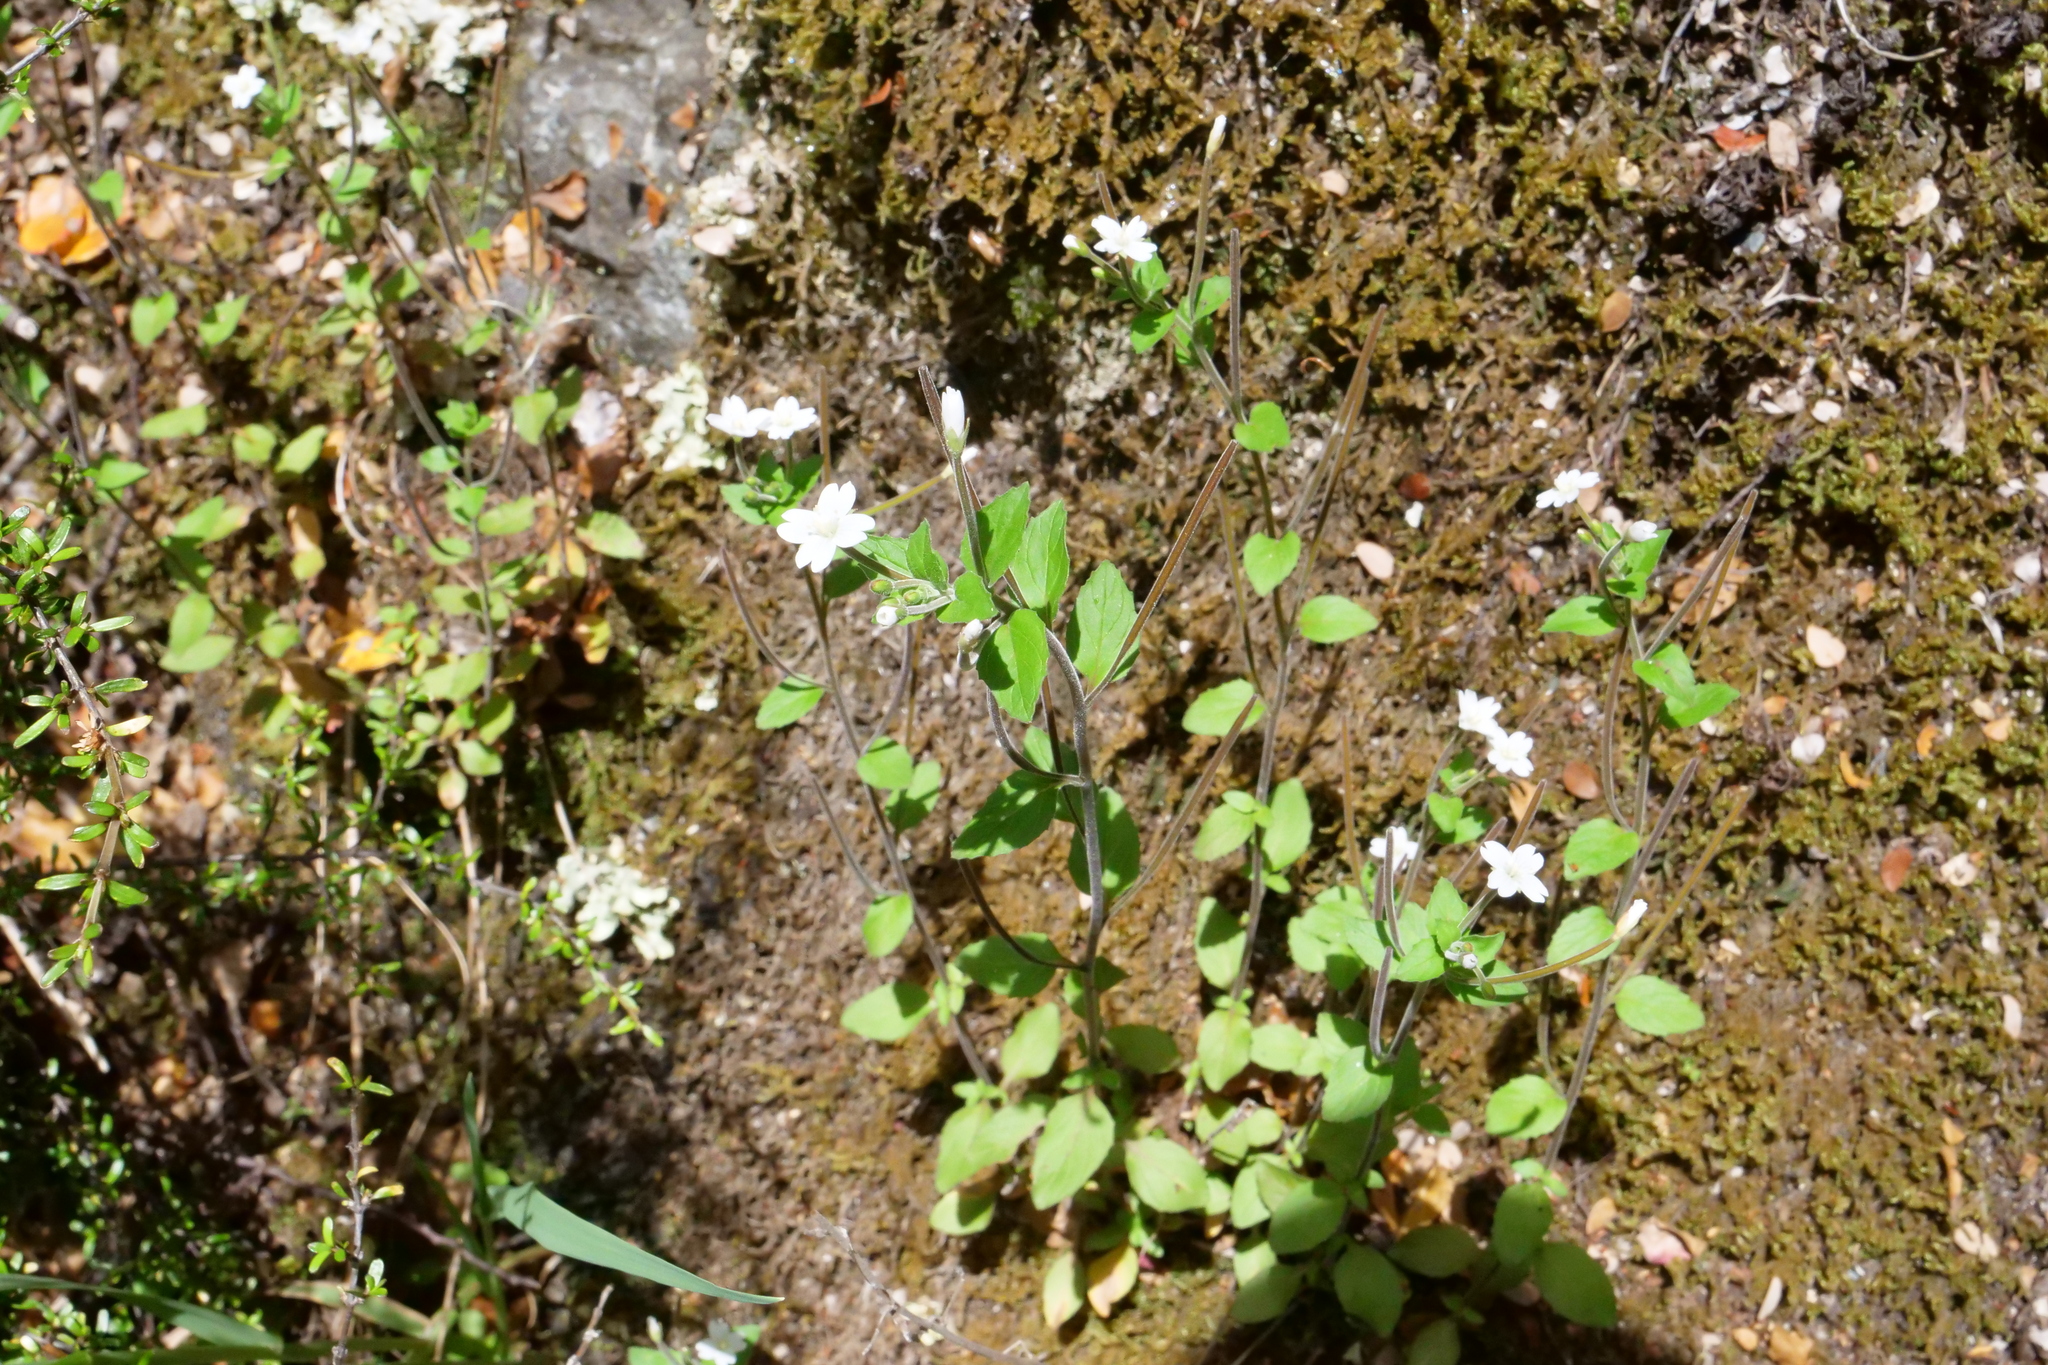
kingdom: Plantae
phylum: Tracheophyta
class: Magnoliopsida
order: Myrtales
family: Onagraceae
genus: Epilobium
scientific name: Epilobium pubens
